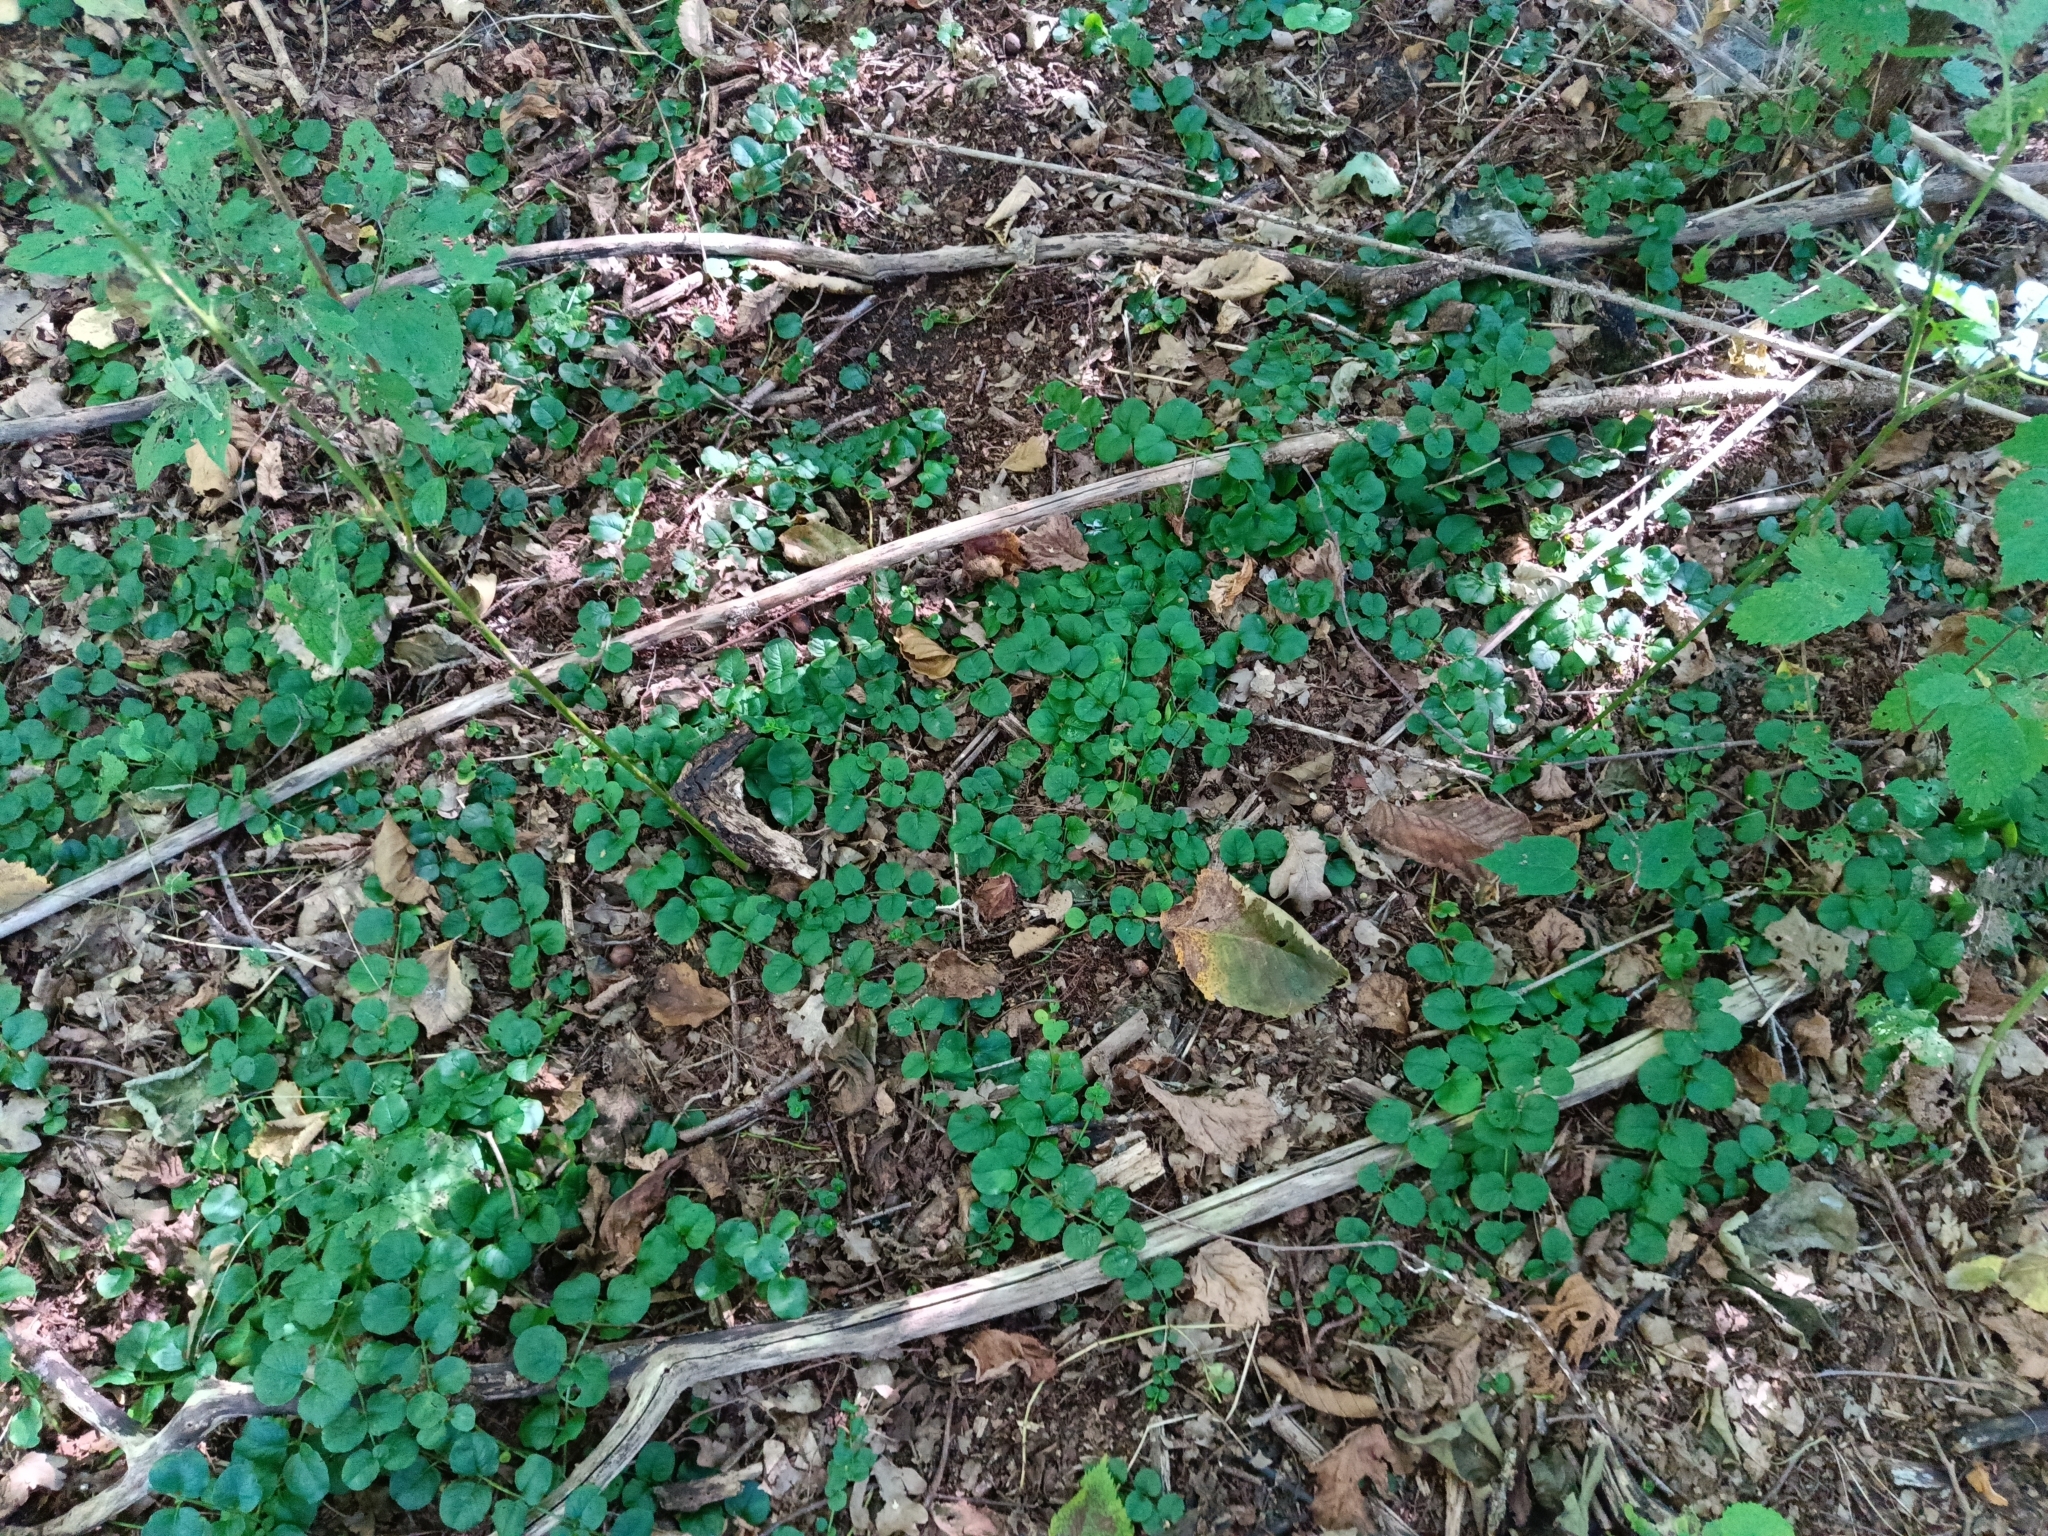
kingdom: Plantae
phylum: Tracheophyta
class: Magnoliopsida
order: Ericales
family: Primulaceae
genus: Lysimachia
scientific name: Lysimachia nummularia
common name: Moneywort
